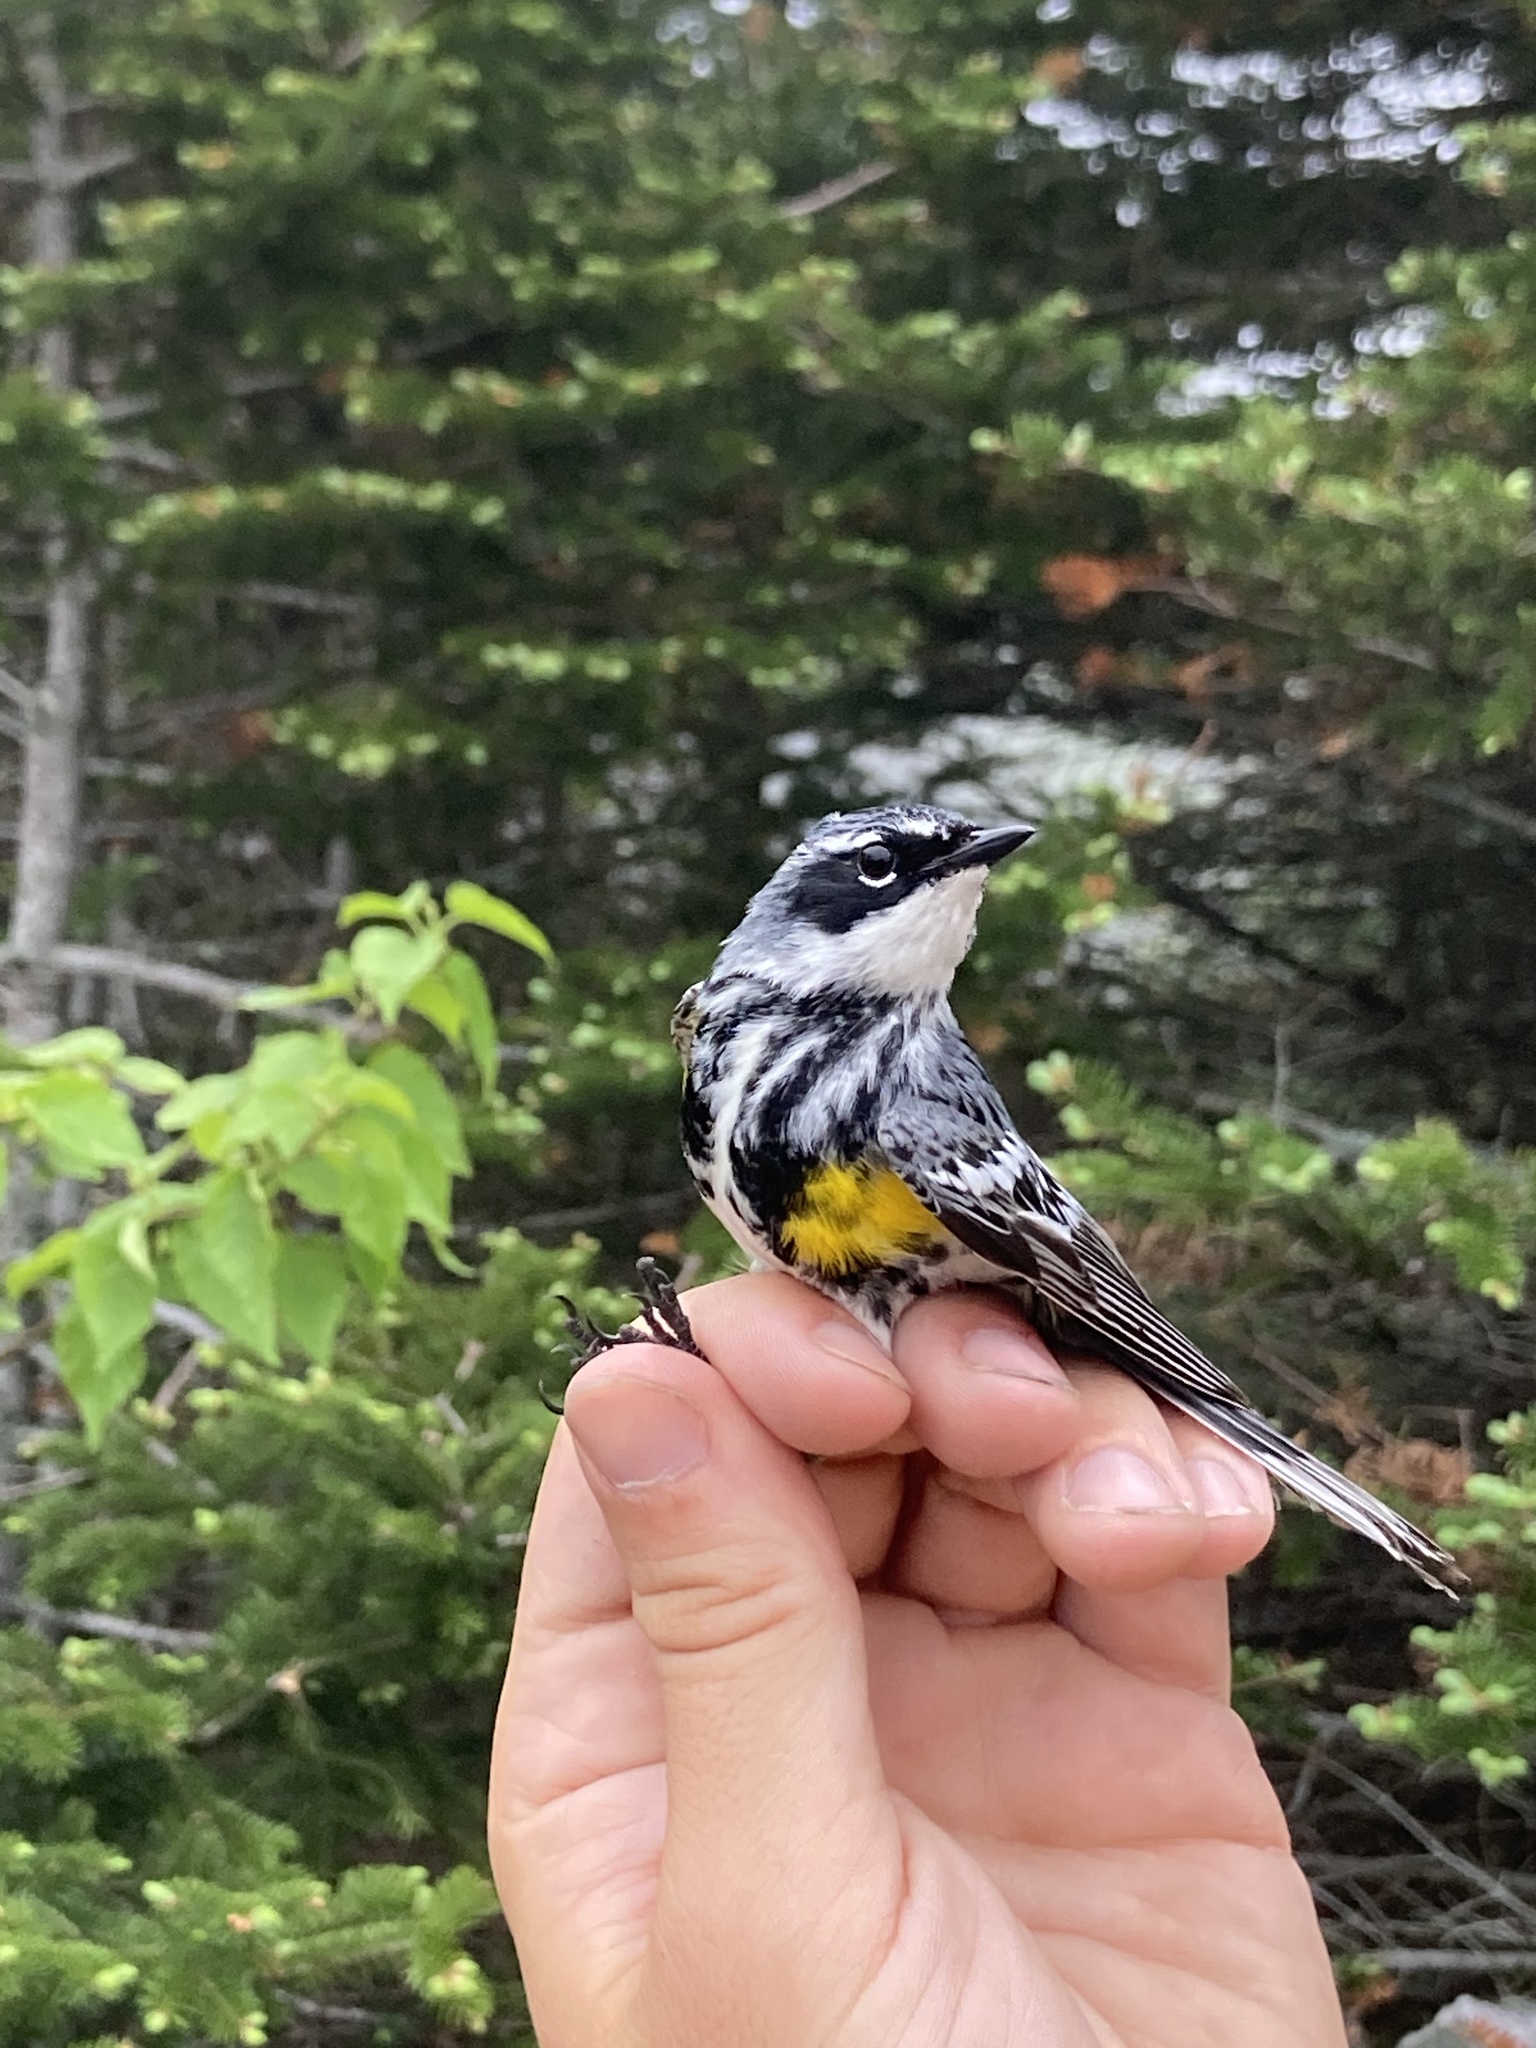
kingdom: Animalia
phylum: Chordata
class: Aves
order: Passeriformes
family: Parulidae
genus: Setophaga
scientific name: Setophaga coronata
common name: Myrtle warbler
